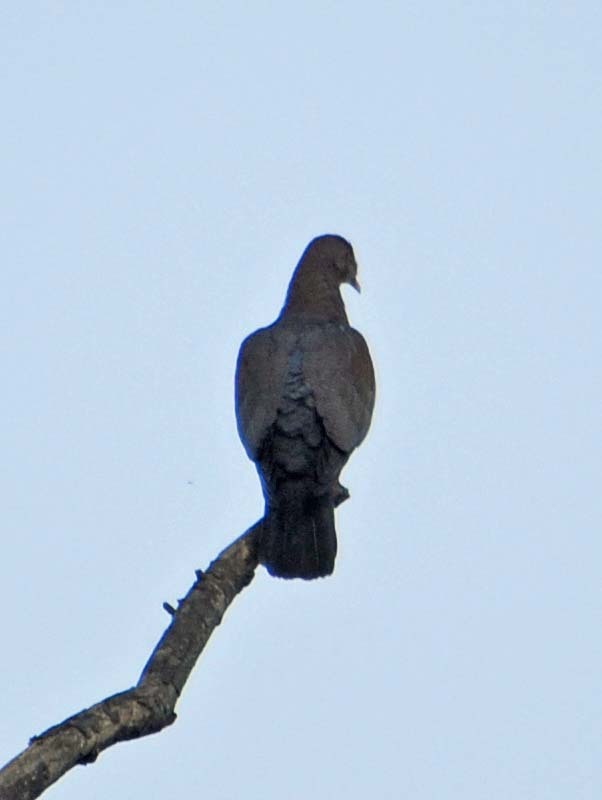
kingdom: Animalia
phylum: Chordata
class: Aves
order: Columbiformes
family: Columbidae
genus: Patagioenas
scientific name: Patagioenas flavirostris
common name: Red-billed pigeon
